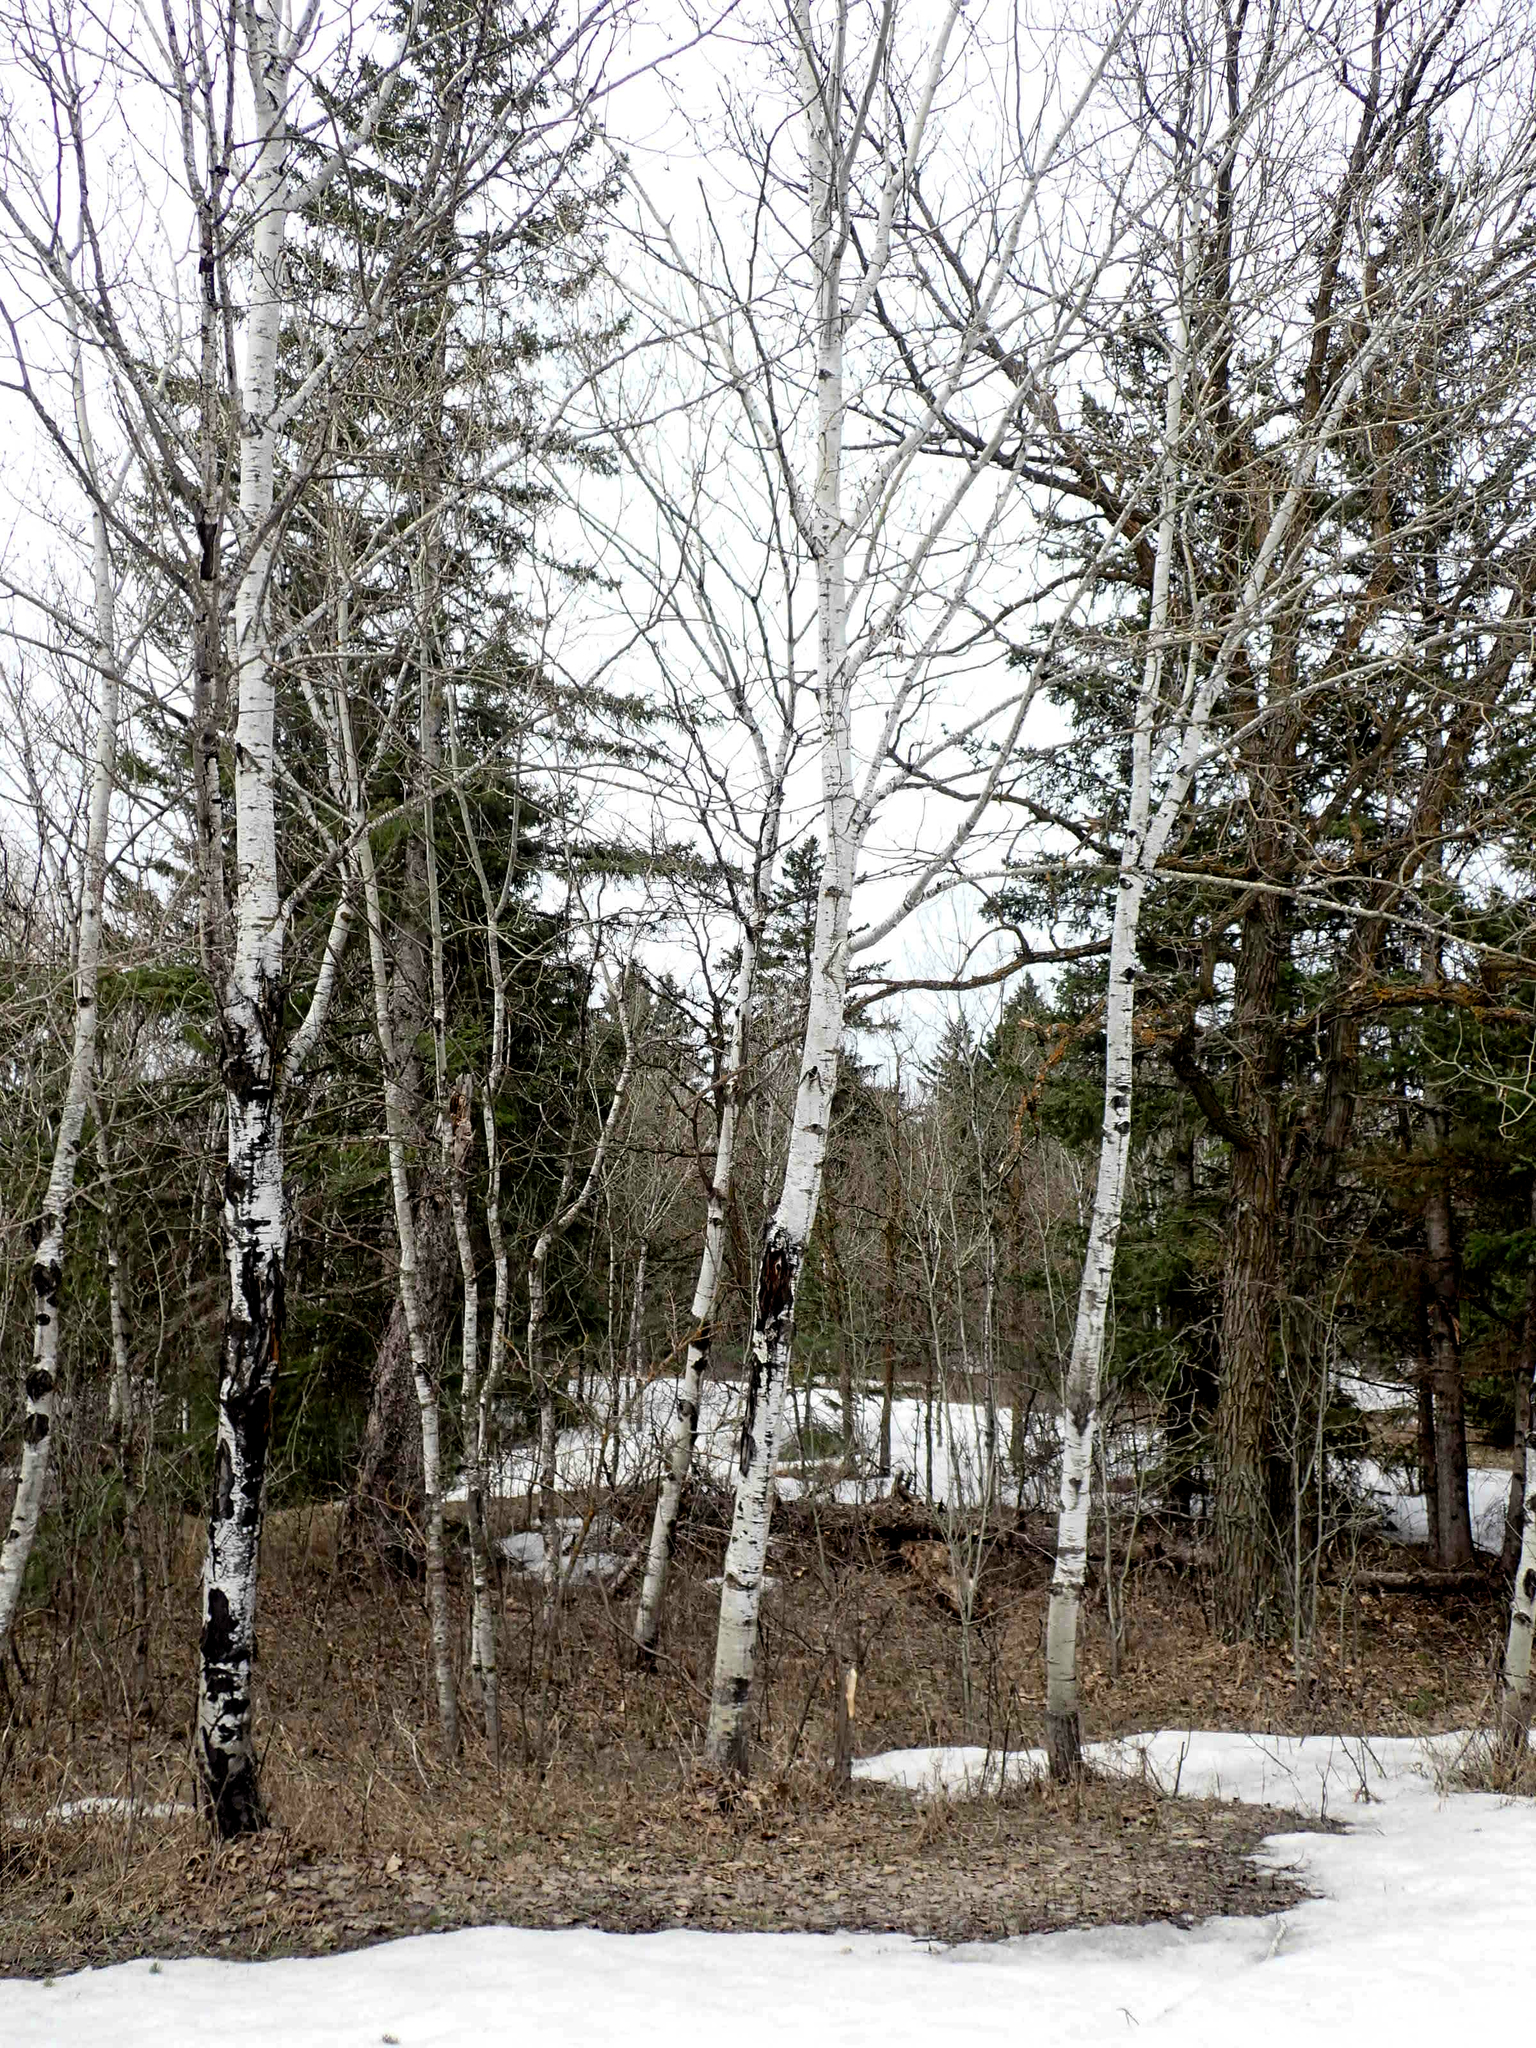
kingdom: Plantae
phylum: Tracheophyta
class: Magnoliopsida
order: Malpighiales
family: Salicaceae
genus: Populus
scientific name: Populus tremuloides
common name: Quaking aspen
